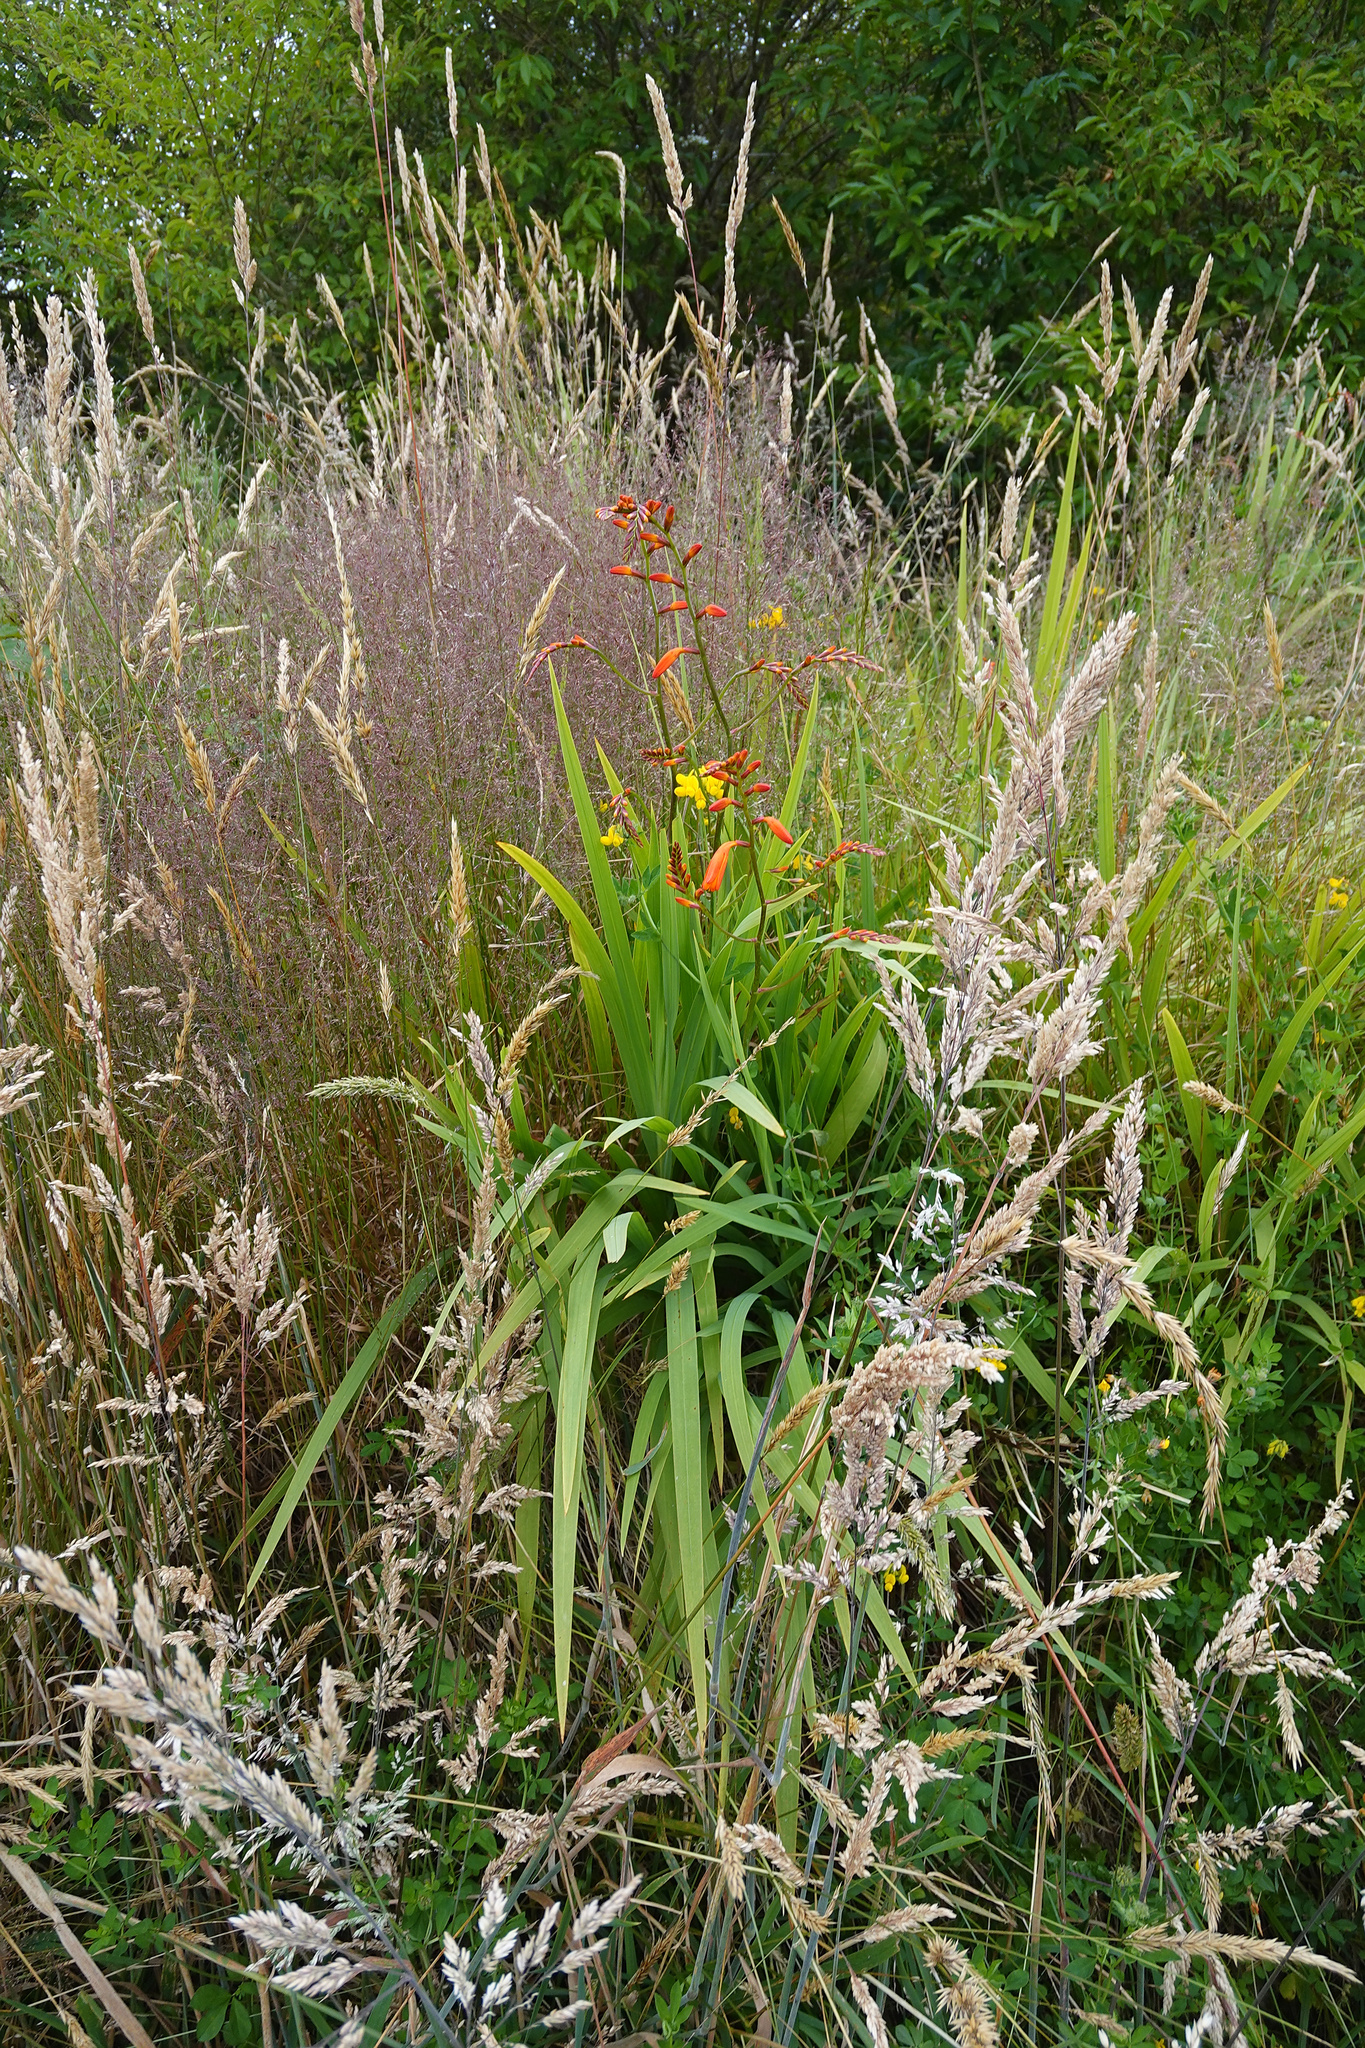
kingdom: Plantae
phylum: Tracheophyta
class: Liliopsida
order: Asparagales
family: Iridaceae
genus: Crocosmia
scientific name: Crocosmia crocosmiiflora
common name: Montbretia
